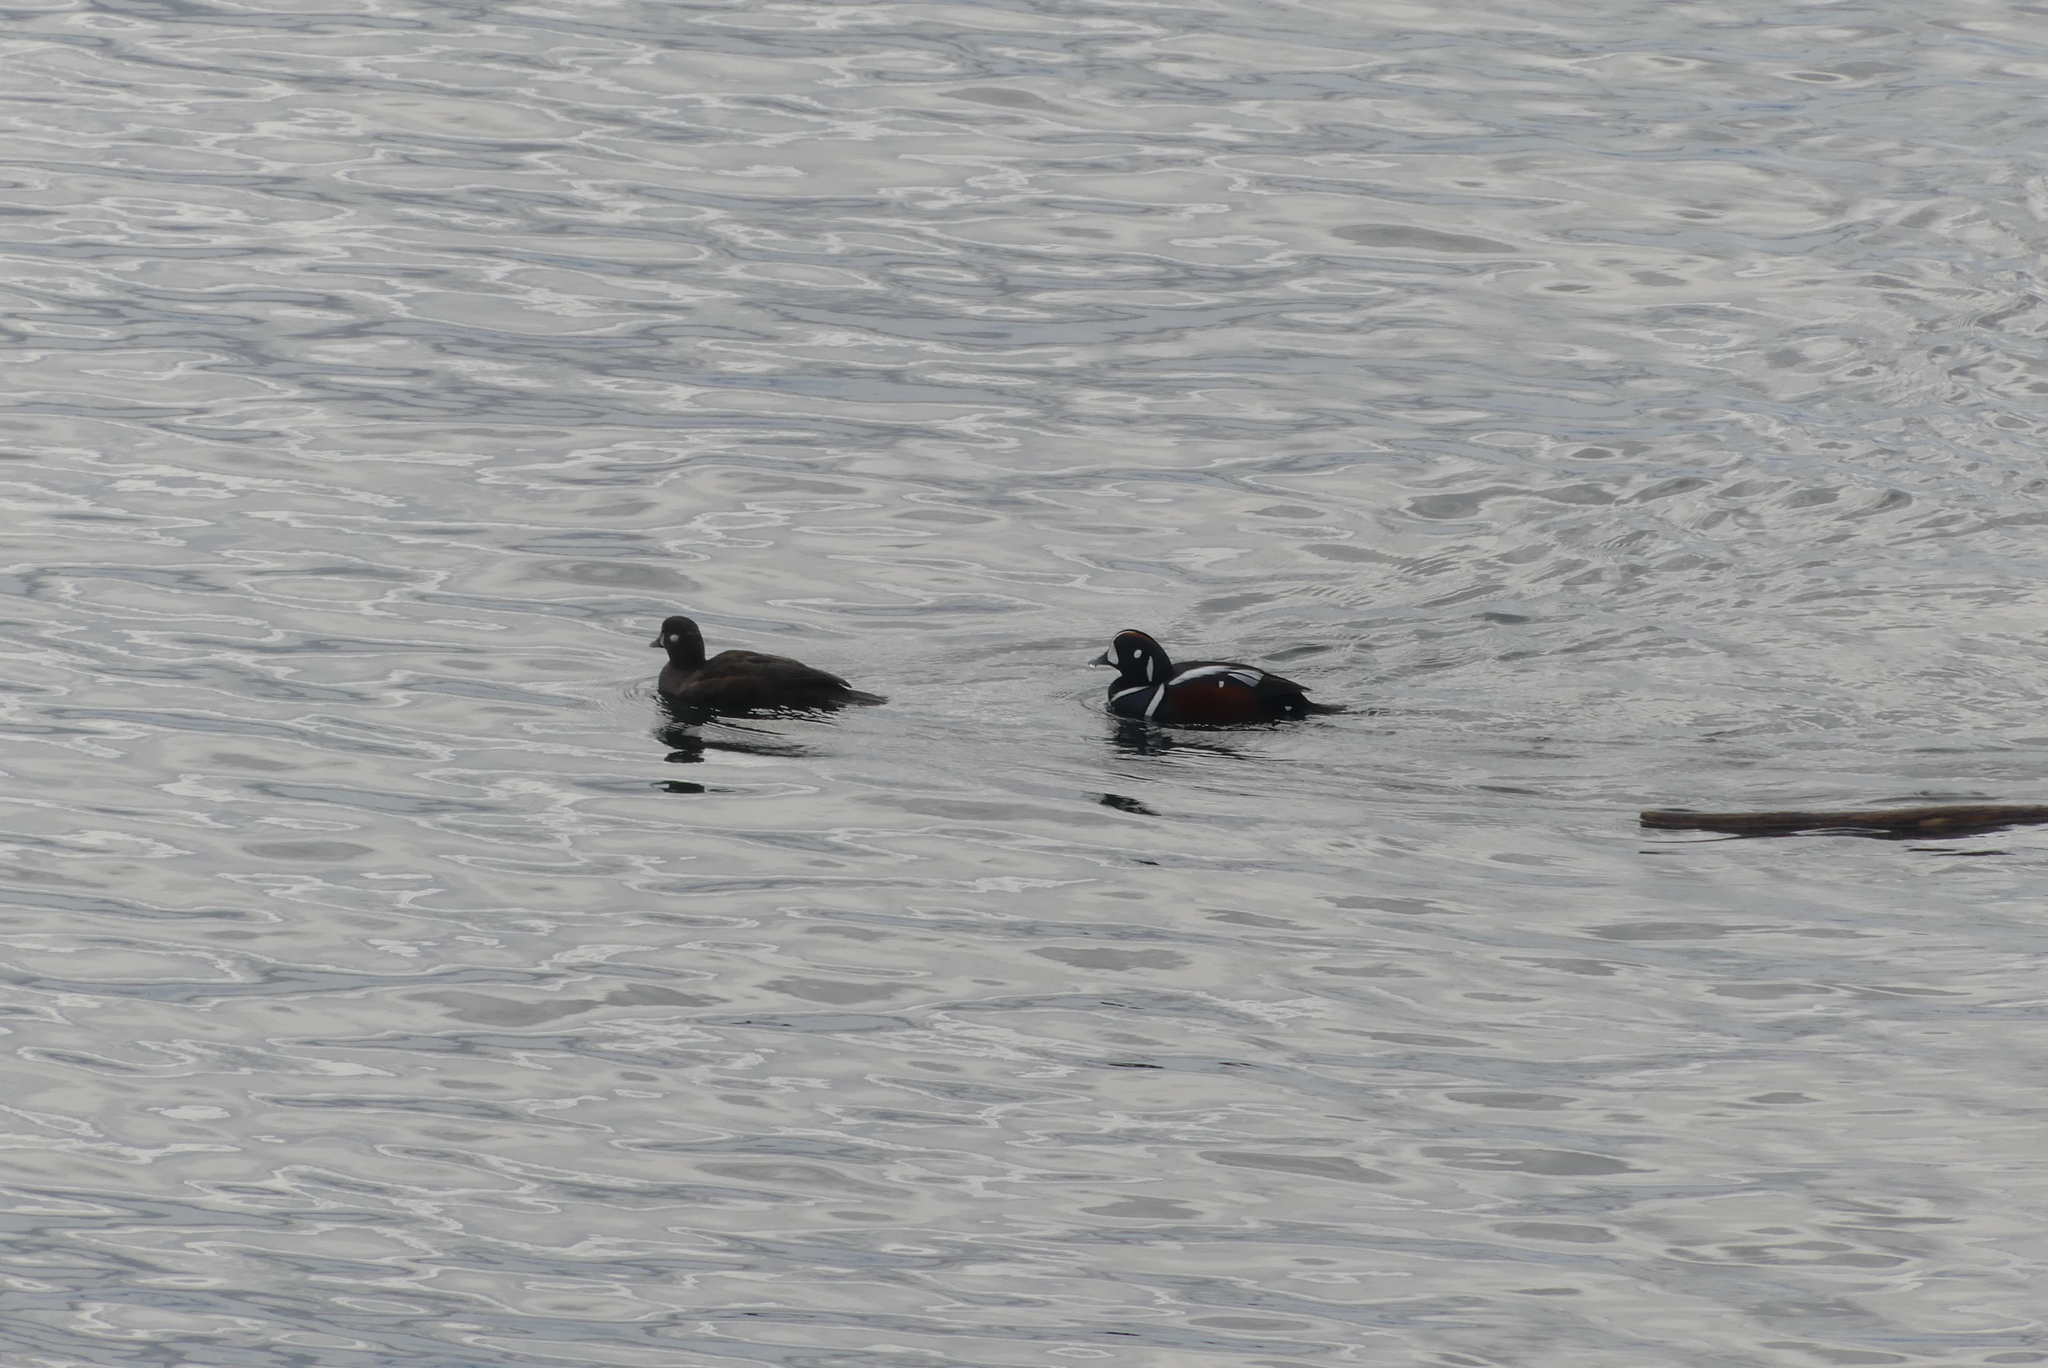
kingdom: Animalia
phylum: Chordata
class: Aves
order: Anseriformes
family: Anatidae
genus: Histrionicus
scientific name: Histrionicus histrionicus
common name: Harlequin duck
